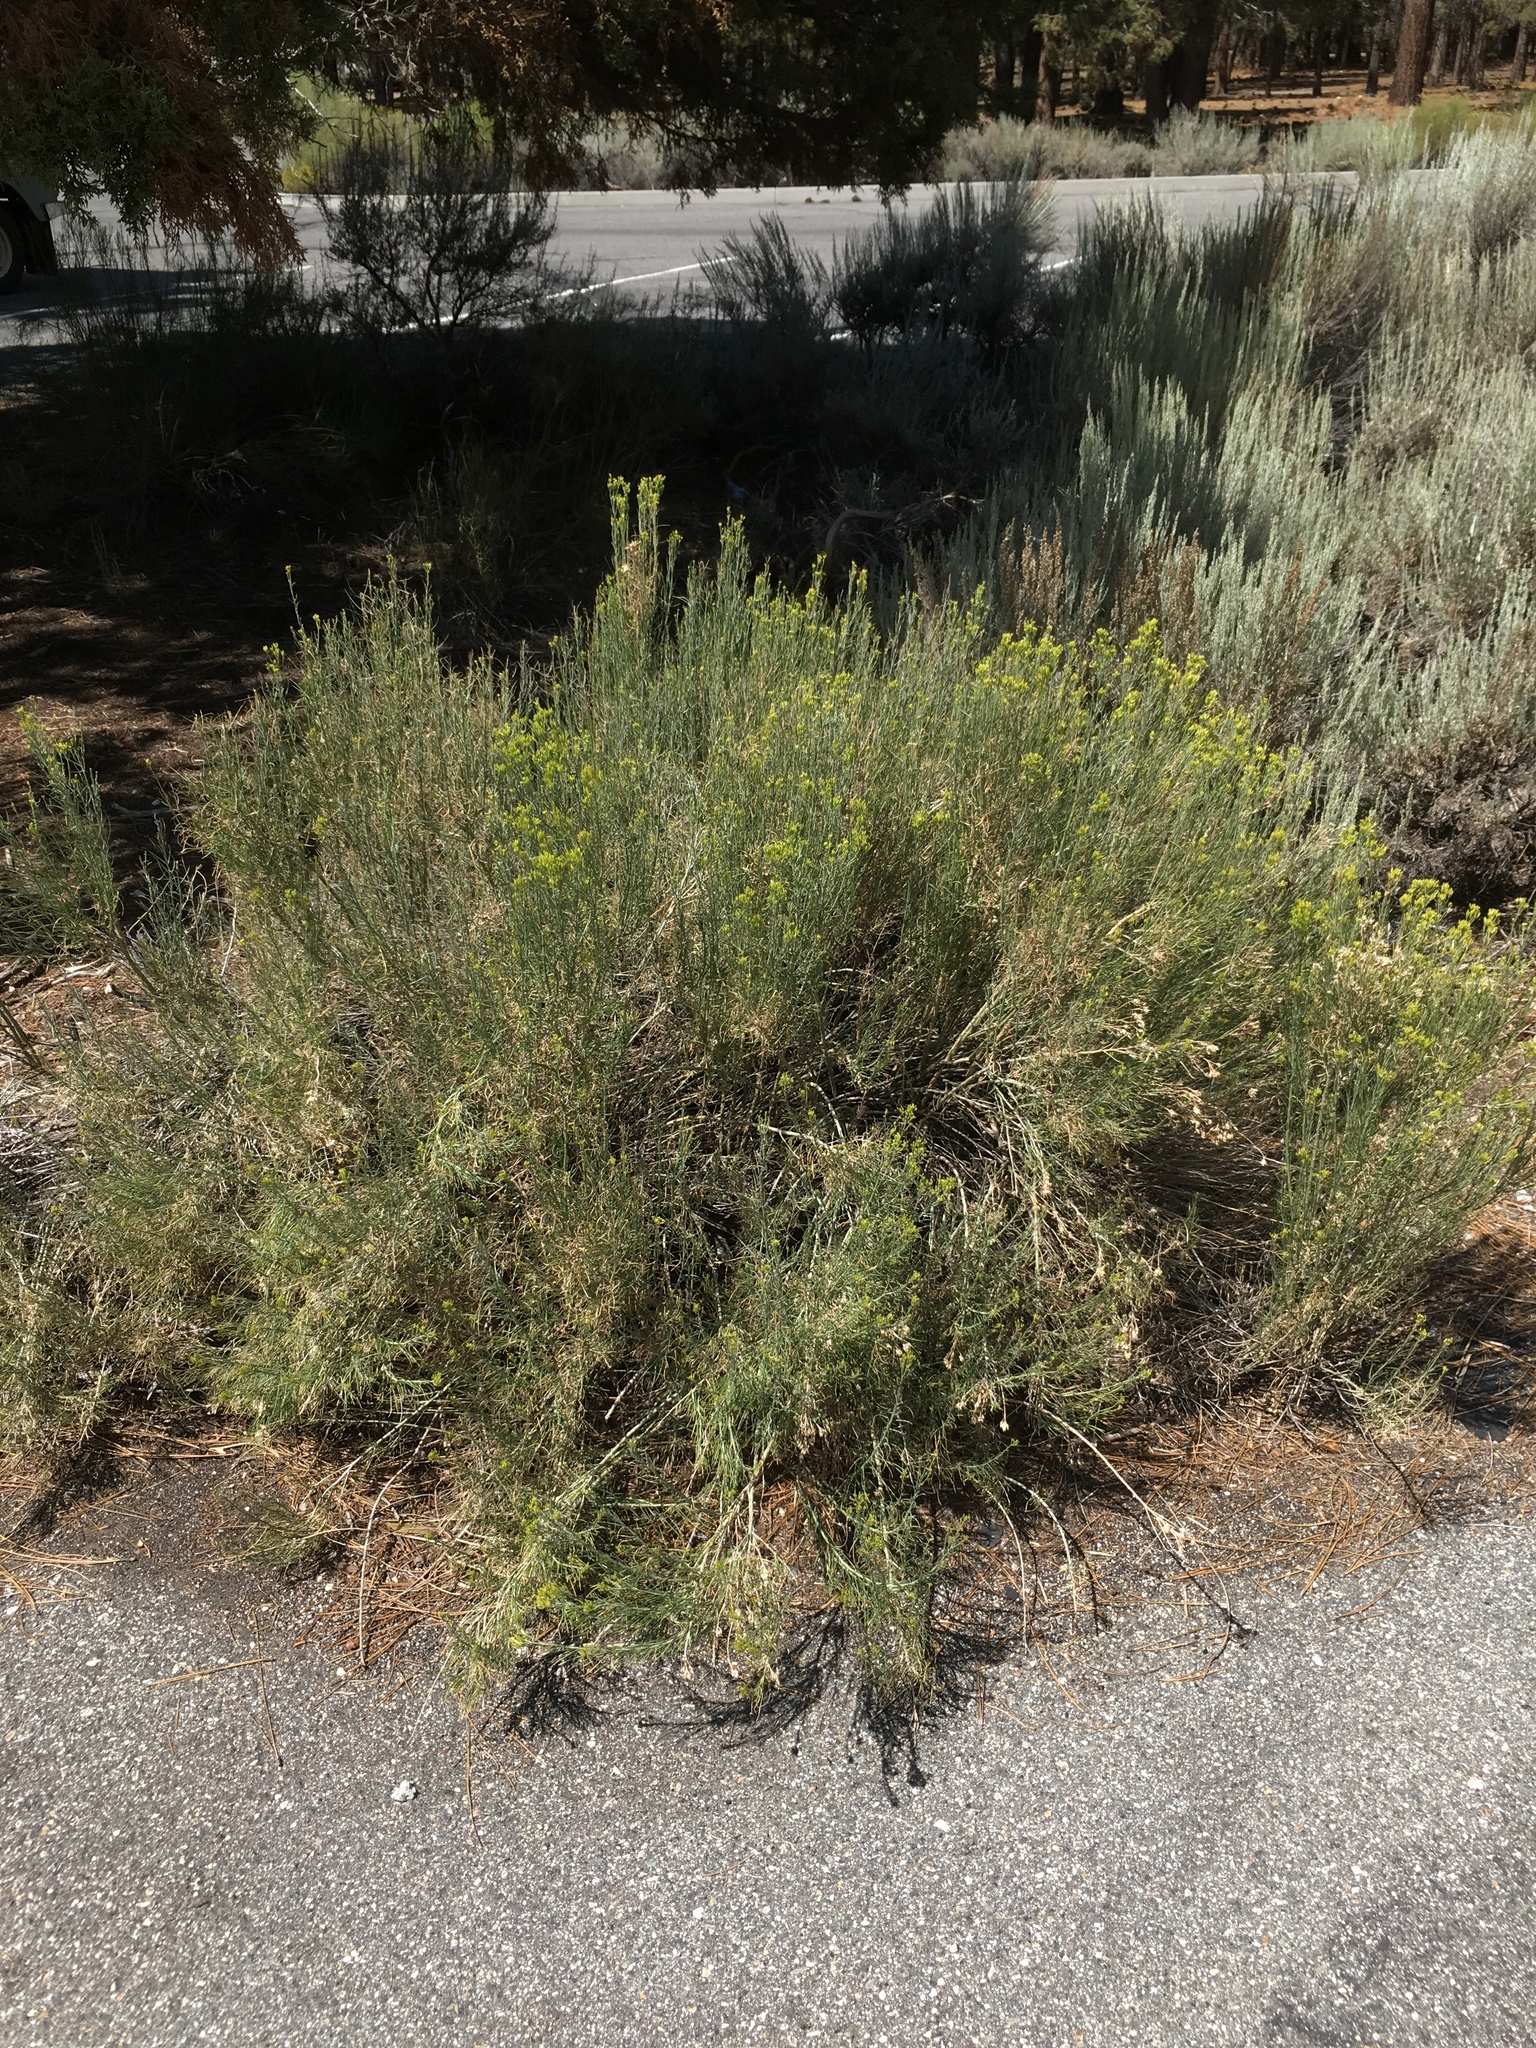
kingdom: Plantae
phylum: Tracheophyta
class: Magnoliopsida
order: Asterales
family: Asteraceae
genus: Ericameria
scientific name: Ericameria nauseosa
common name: Rubber rabbitbrush
